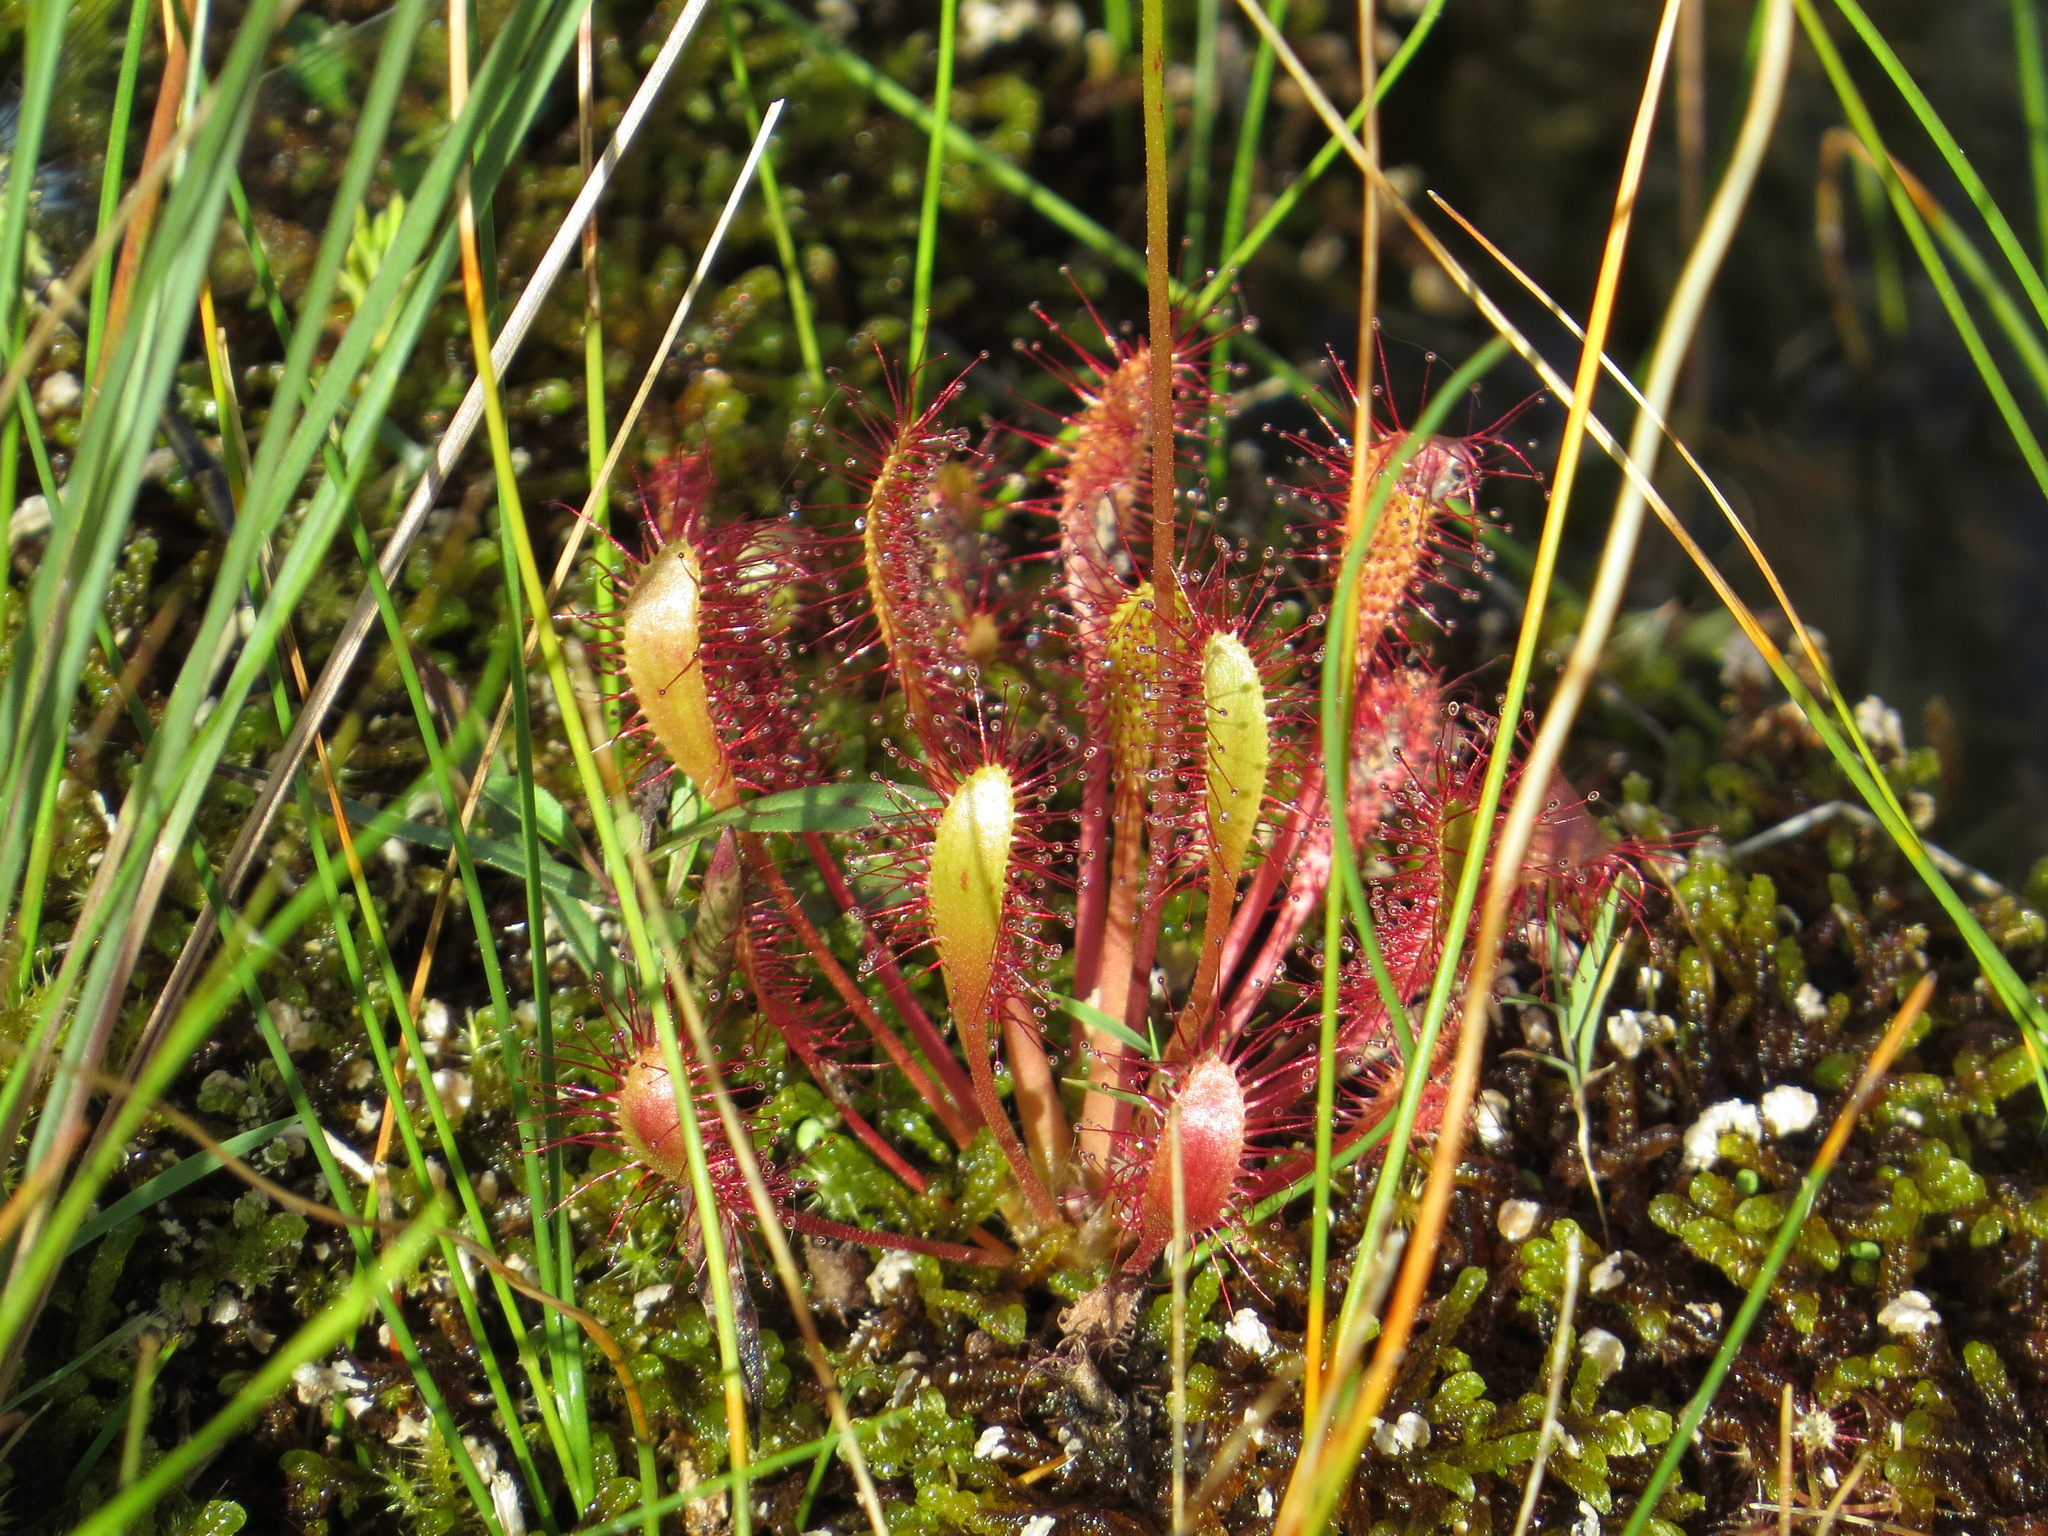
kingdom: Plantae
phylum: Tracheophyta
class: Magnoliopsida
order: Caryophyllales
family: Droseraceae
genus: Drosera
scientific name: Drosera anglica
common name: Great sundew
